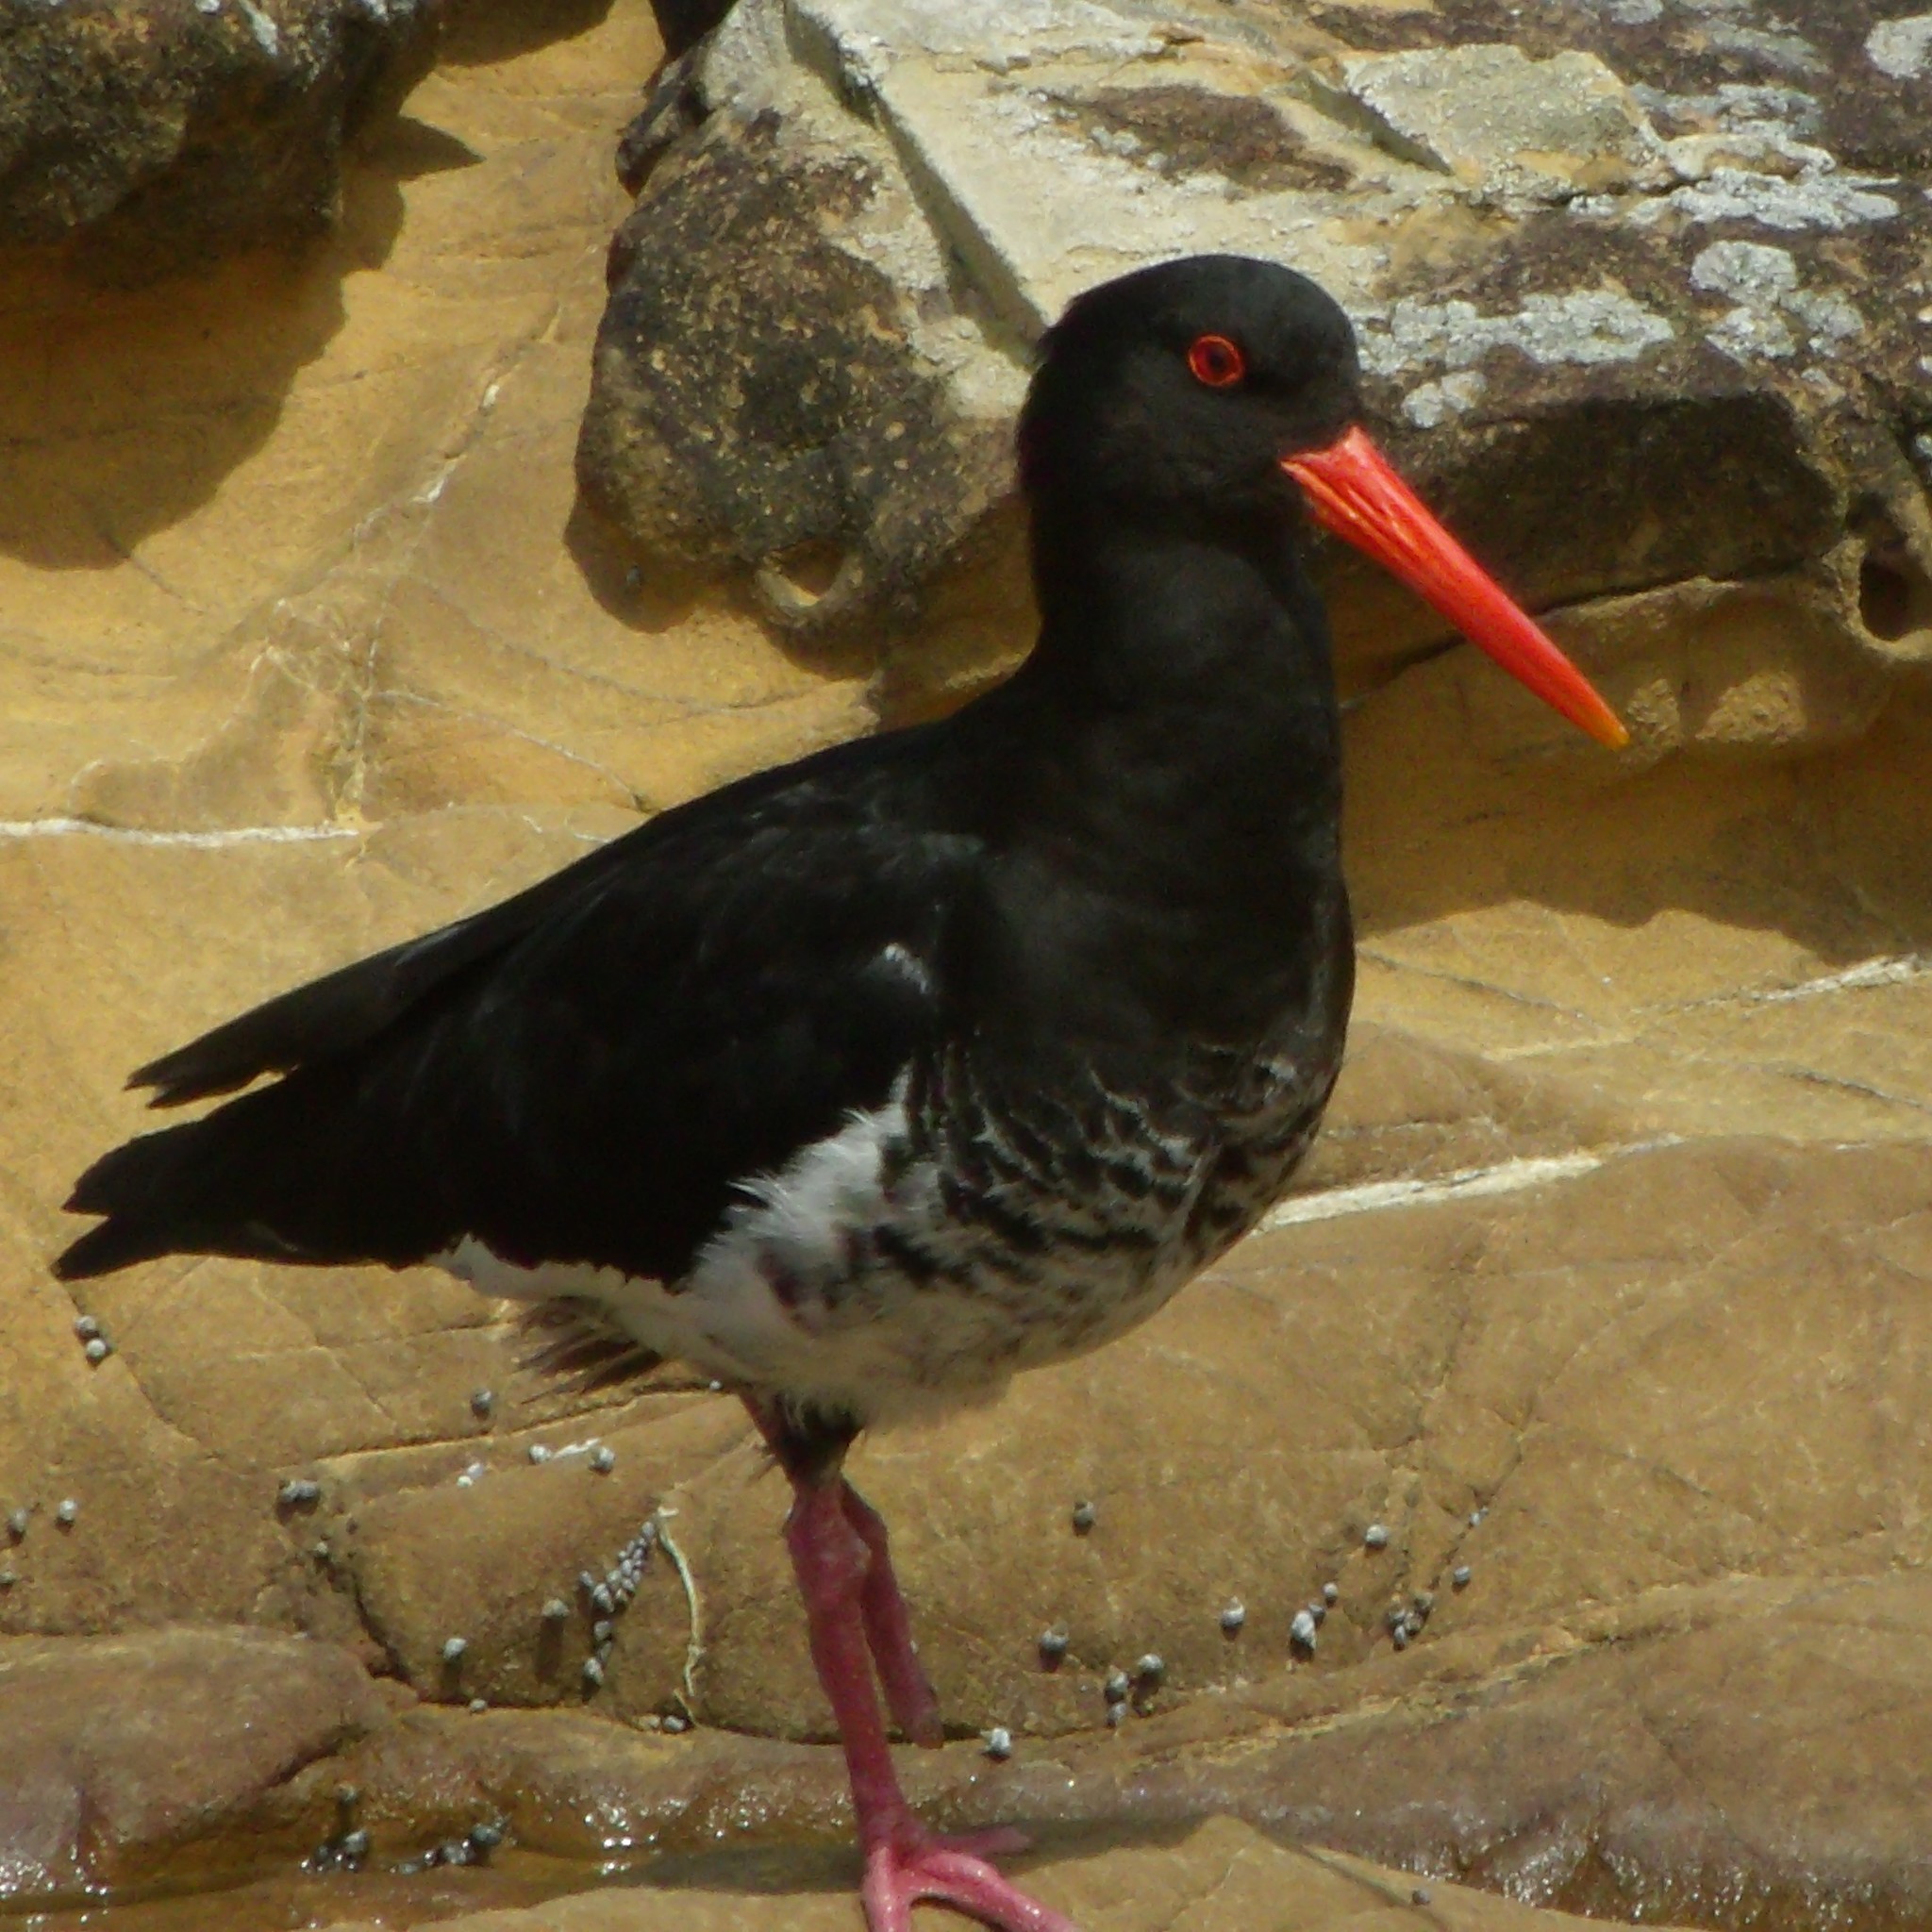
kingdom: Animalia
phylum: Chordata
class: Aves
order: Charadriiformes
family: Haematopodidae
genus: Haematopus
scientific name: Haematopus unicolor
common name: Variable oystercatcher
